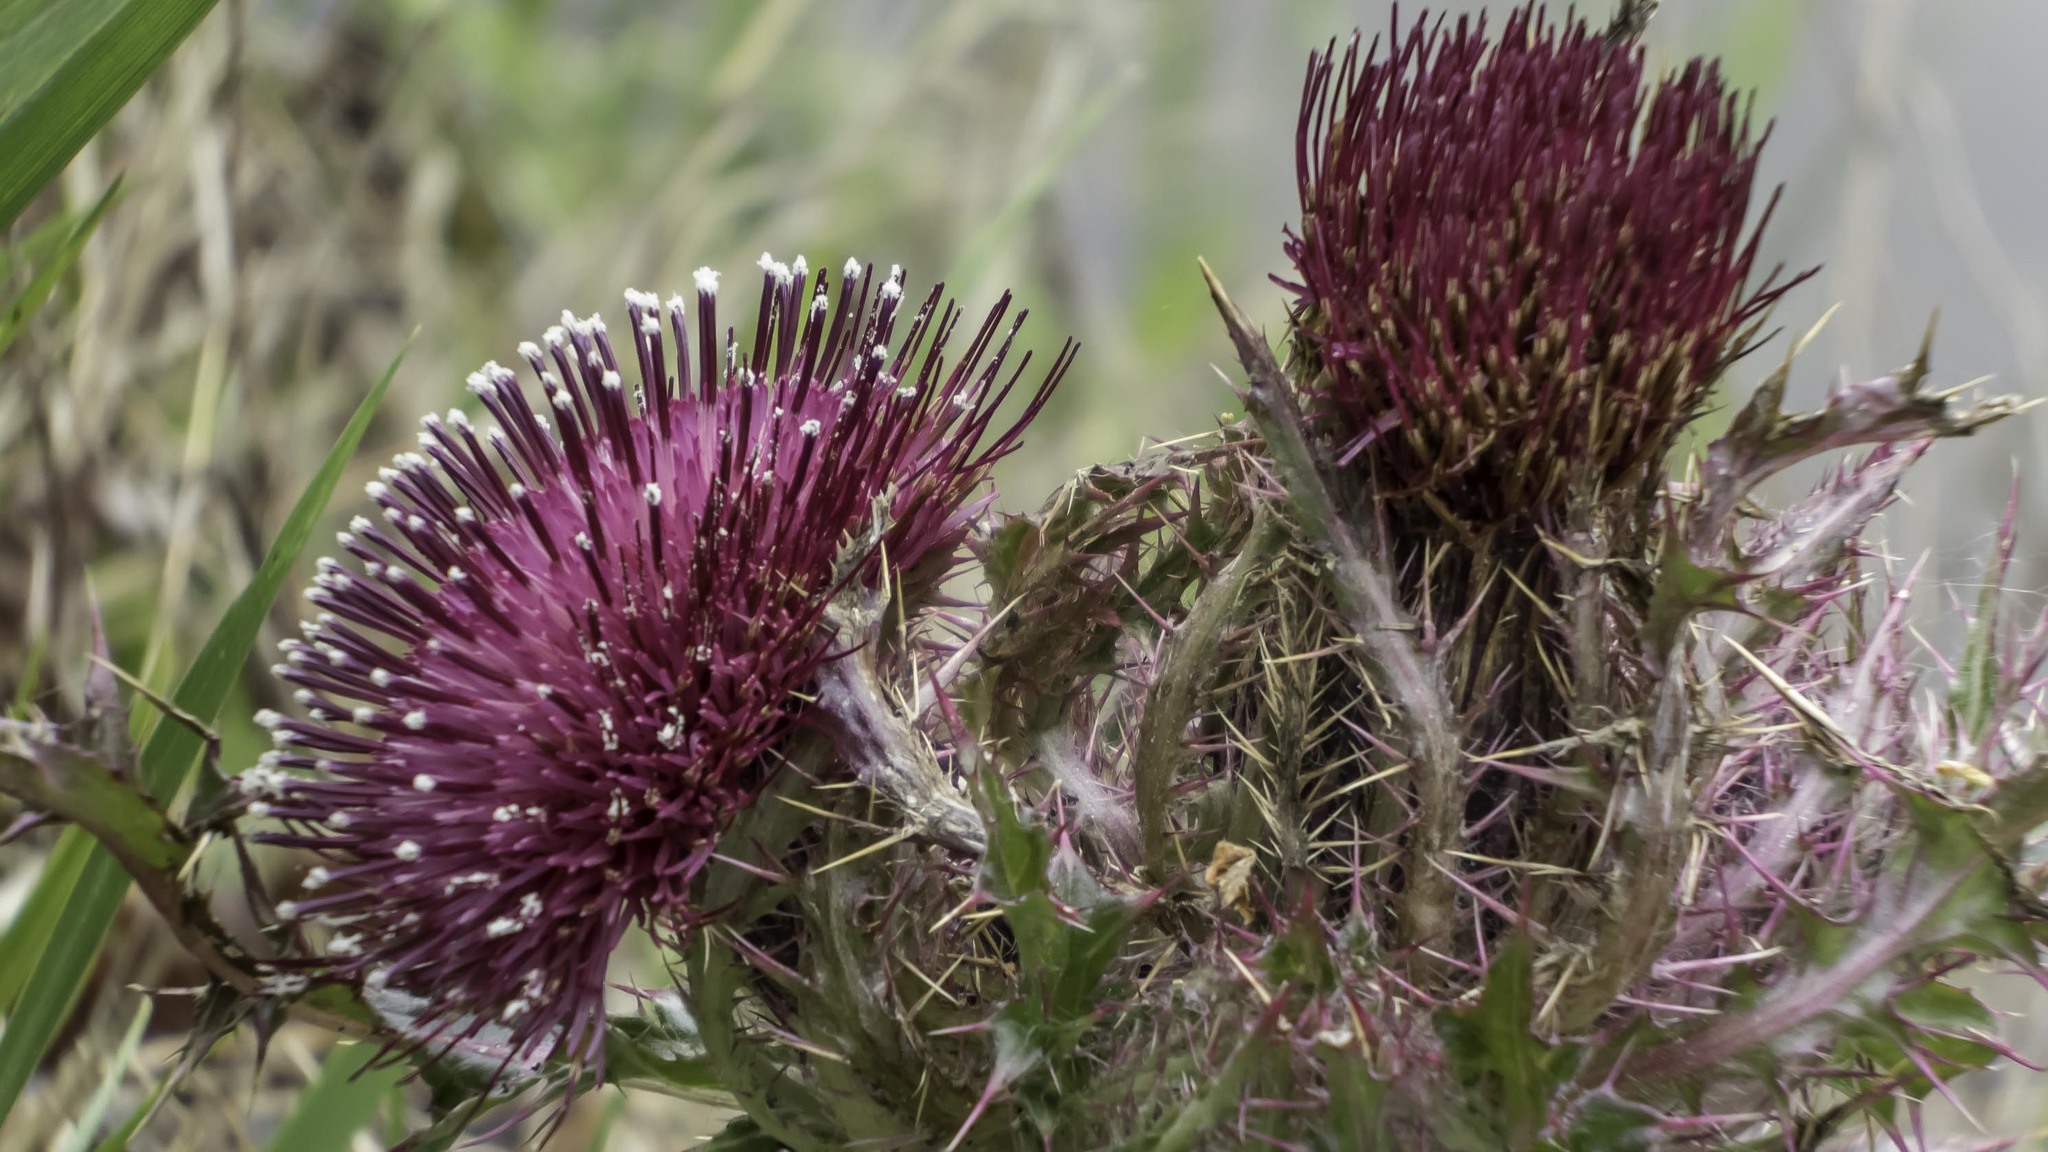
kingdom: Plantae
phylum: Tracheophyta
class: Magnoliopsida
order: Asterales
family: Asteraceae
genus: Cirsium
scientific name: Cirsium horridulum
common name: Bristly thistle
